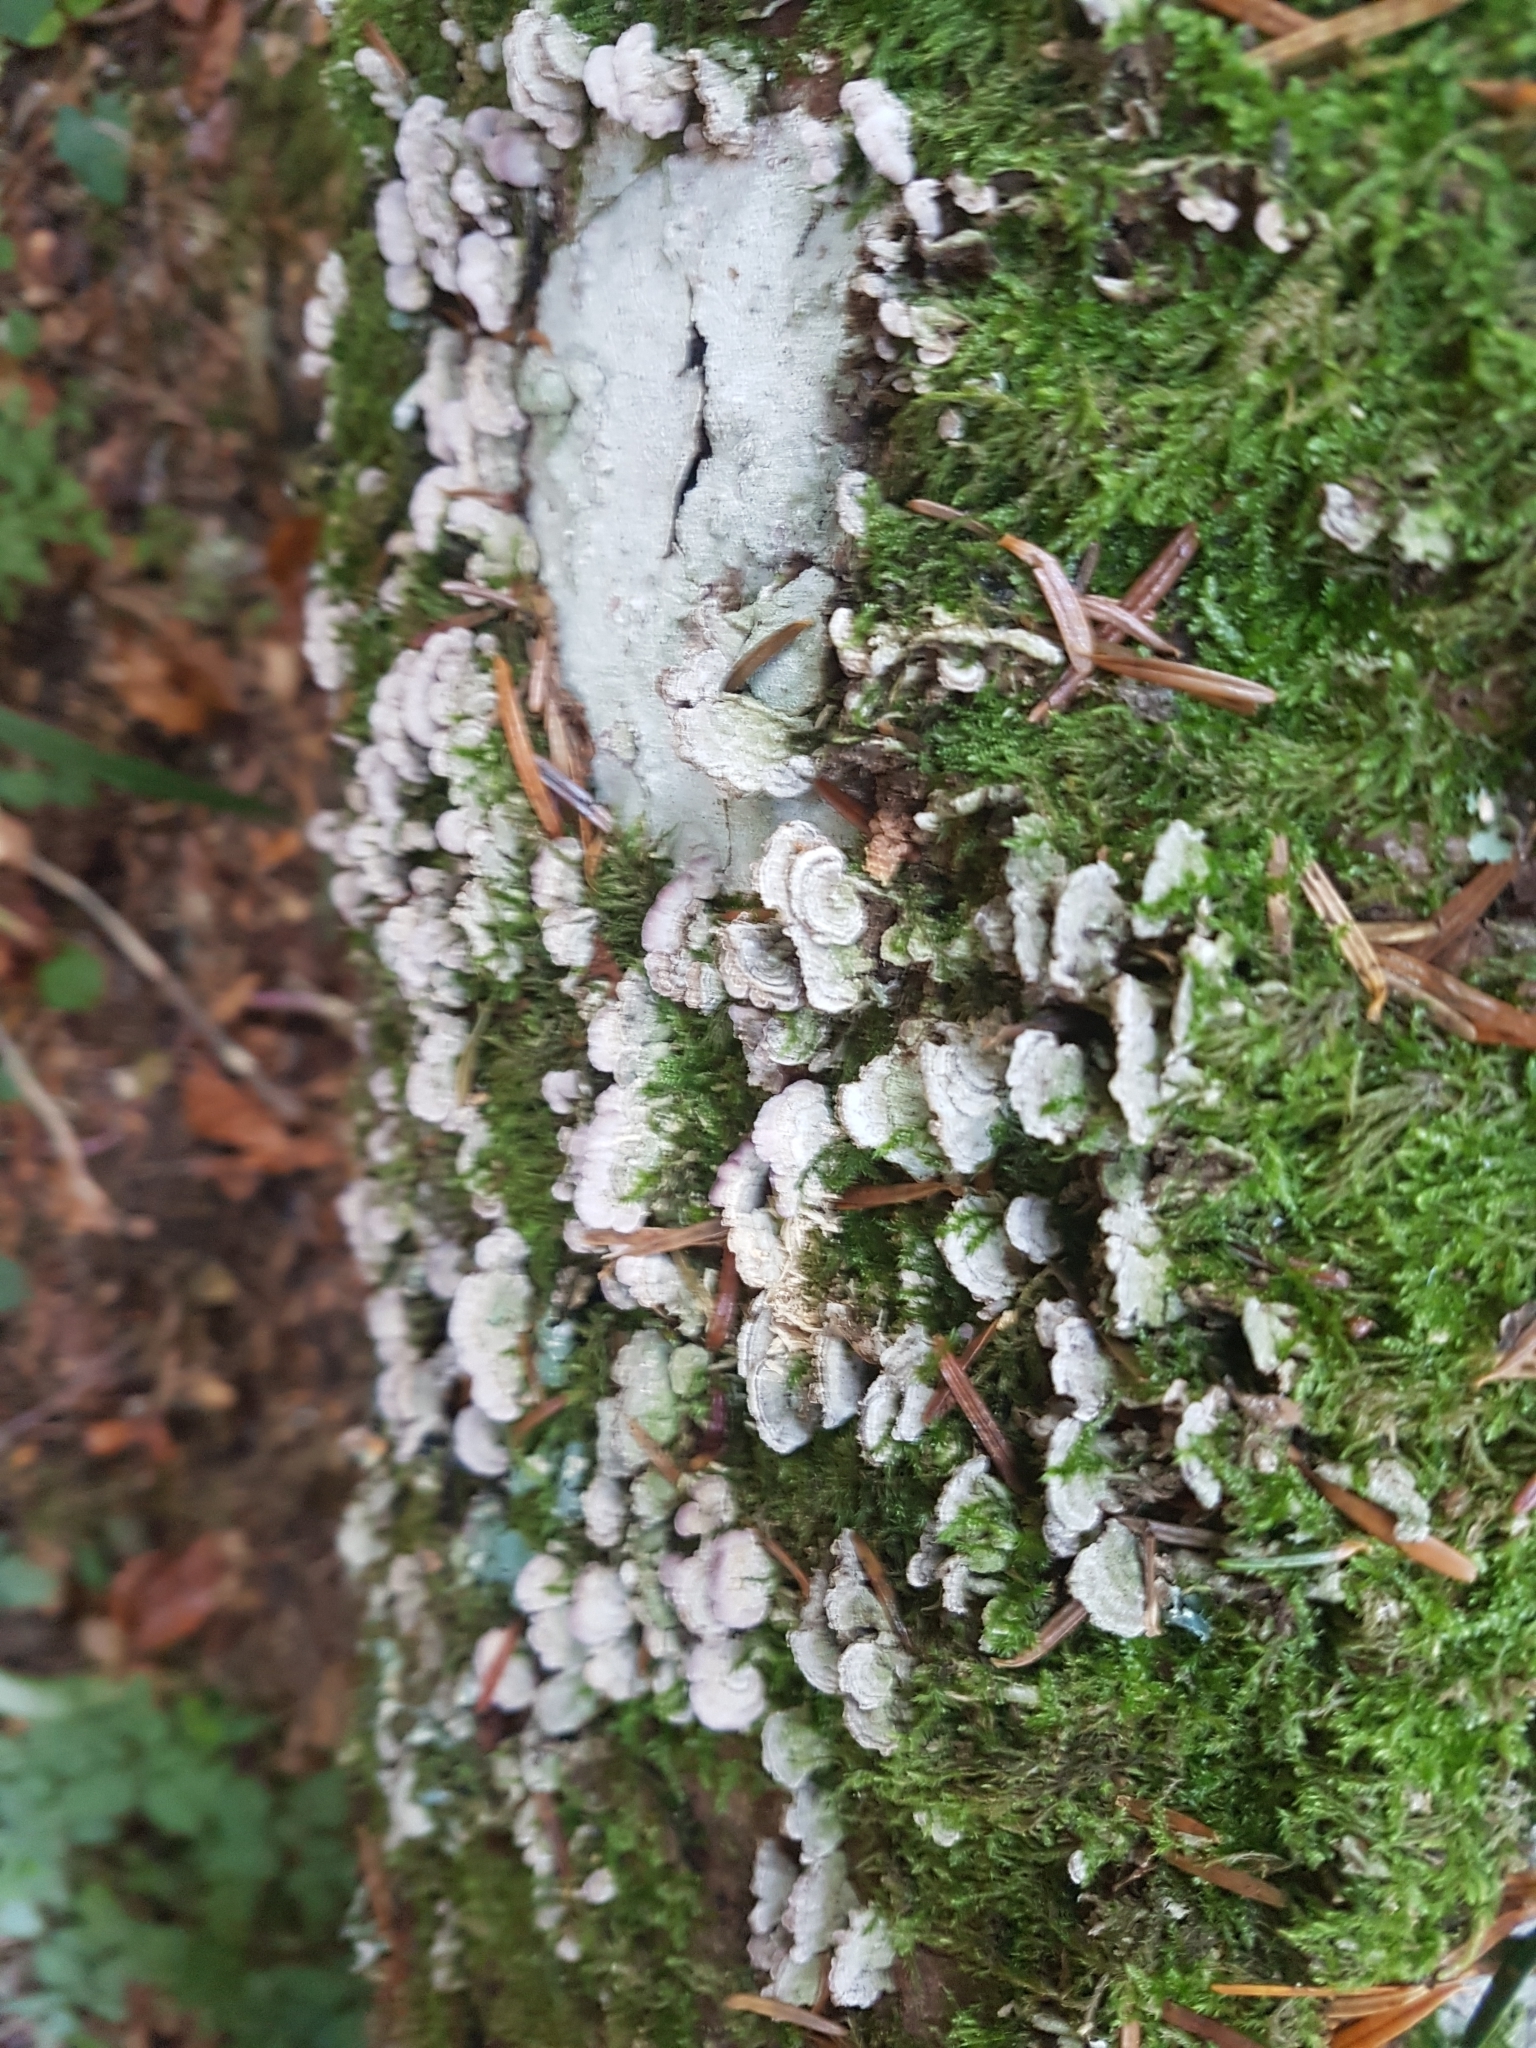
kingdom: Fungi
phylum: Basidiomycota
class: Agaricomycetes
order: Hymenochaetales
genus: Trichaptum
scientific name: Trichaptum abietinum
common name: Purplepore bracket
